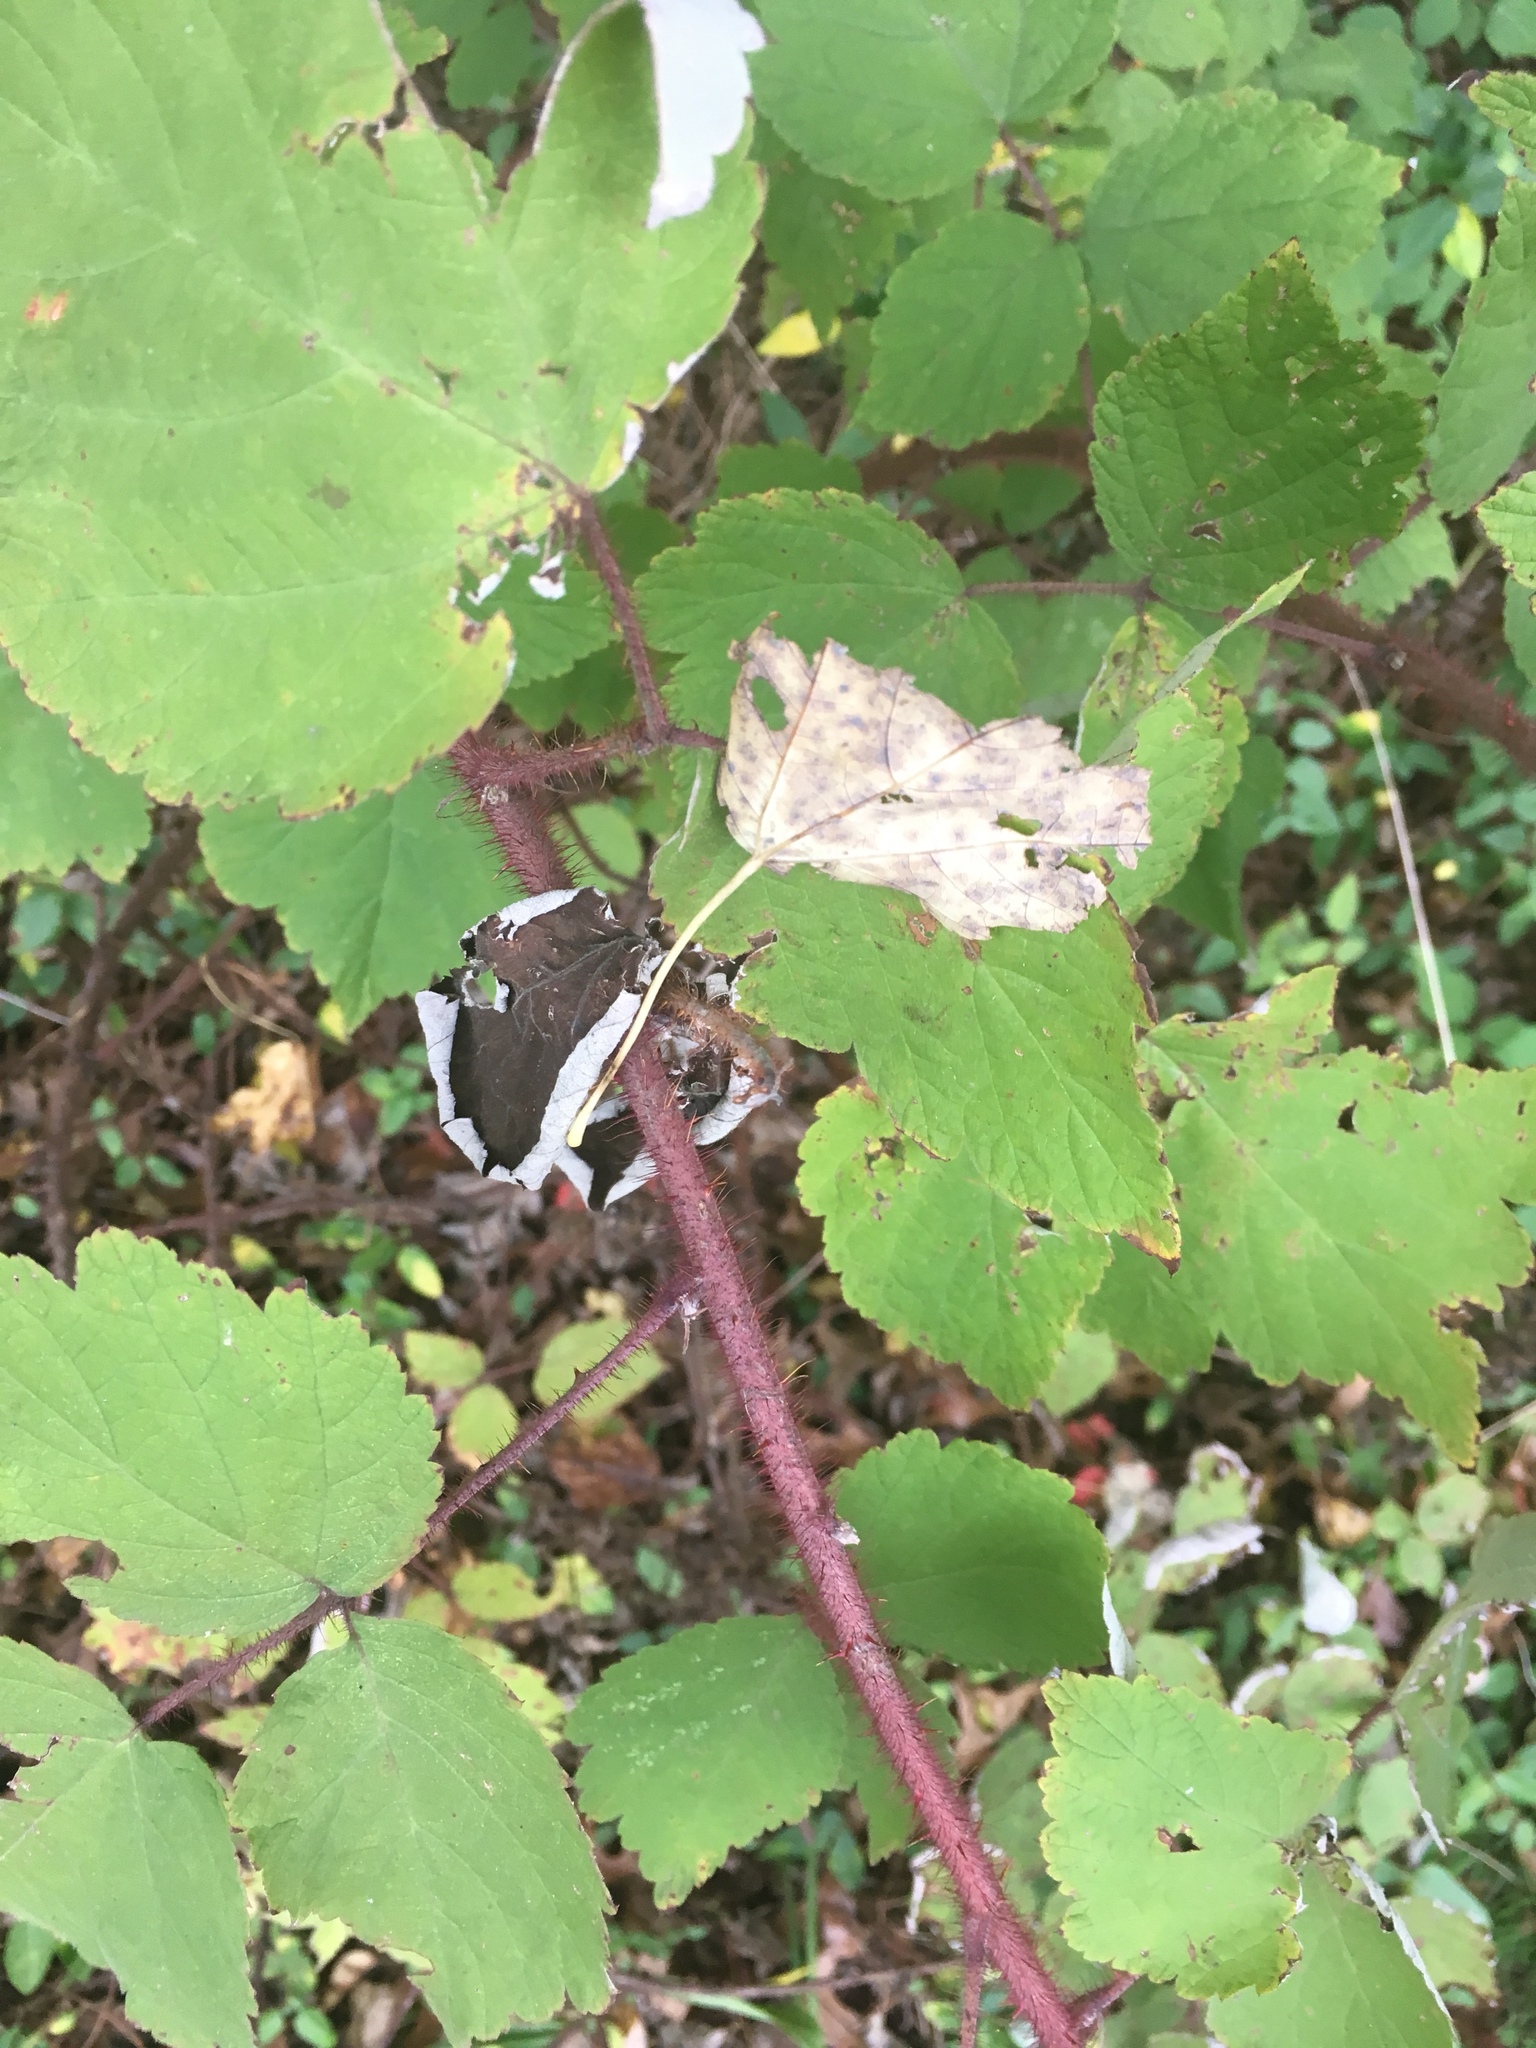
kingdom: Plantae
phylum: Tracheophyta
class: Magnoliopsida
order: Rosales
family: Rosaceae
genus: Rubus
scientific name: Rubus phoenicolasius
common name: Japanese wineberry
